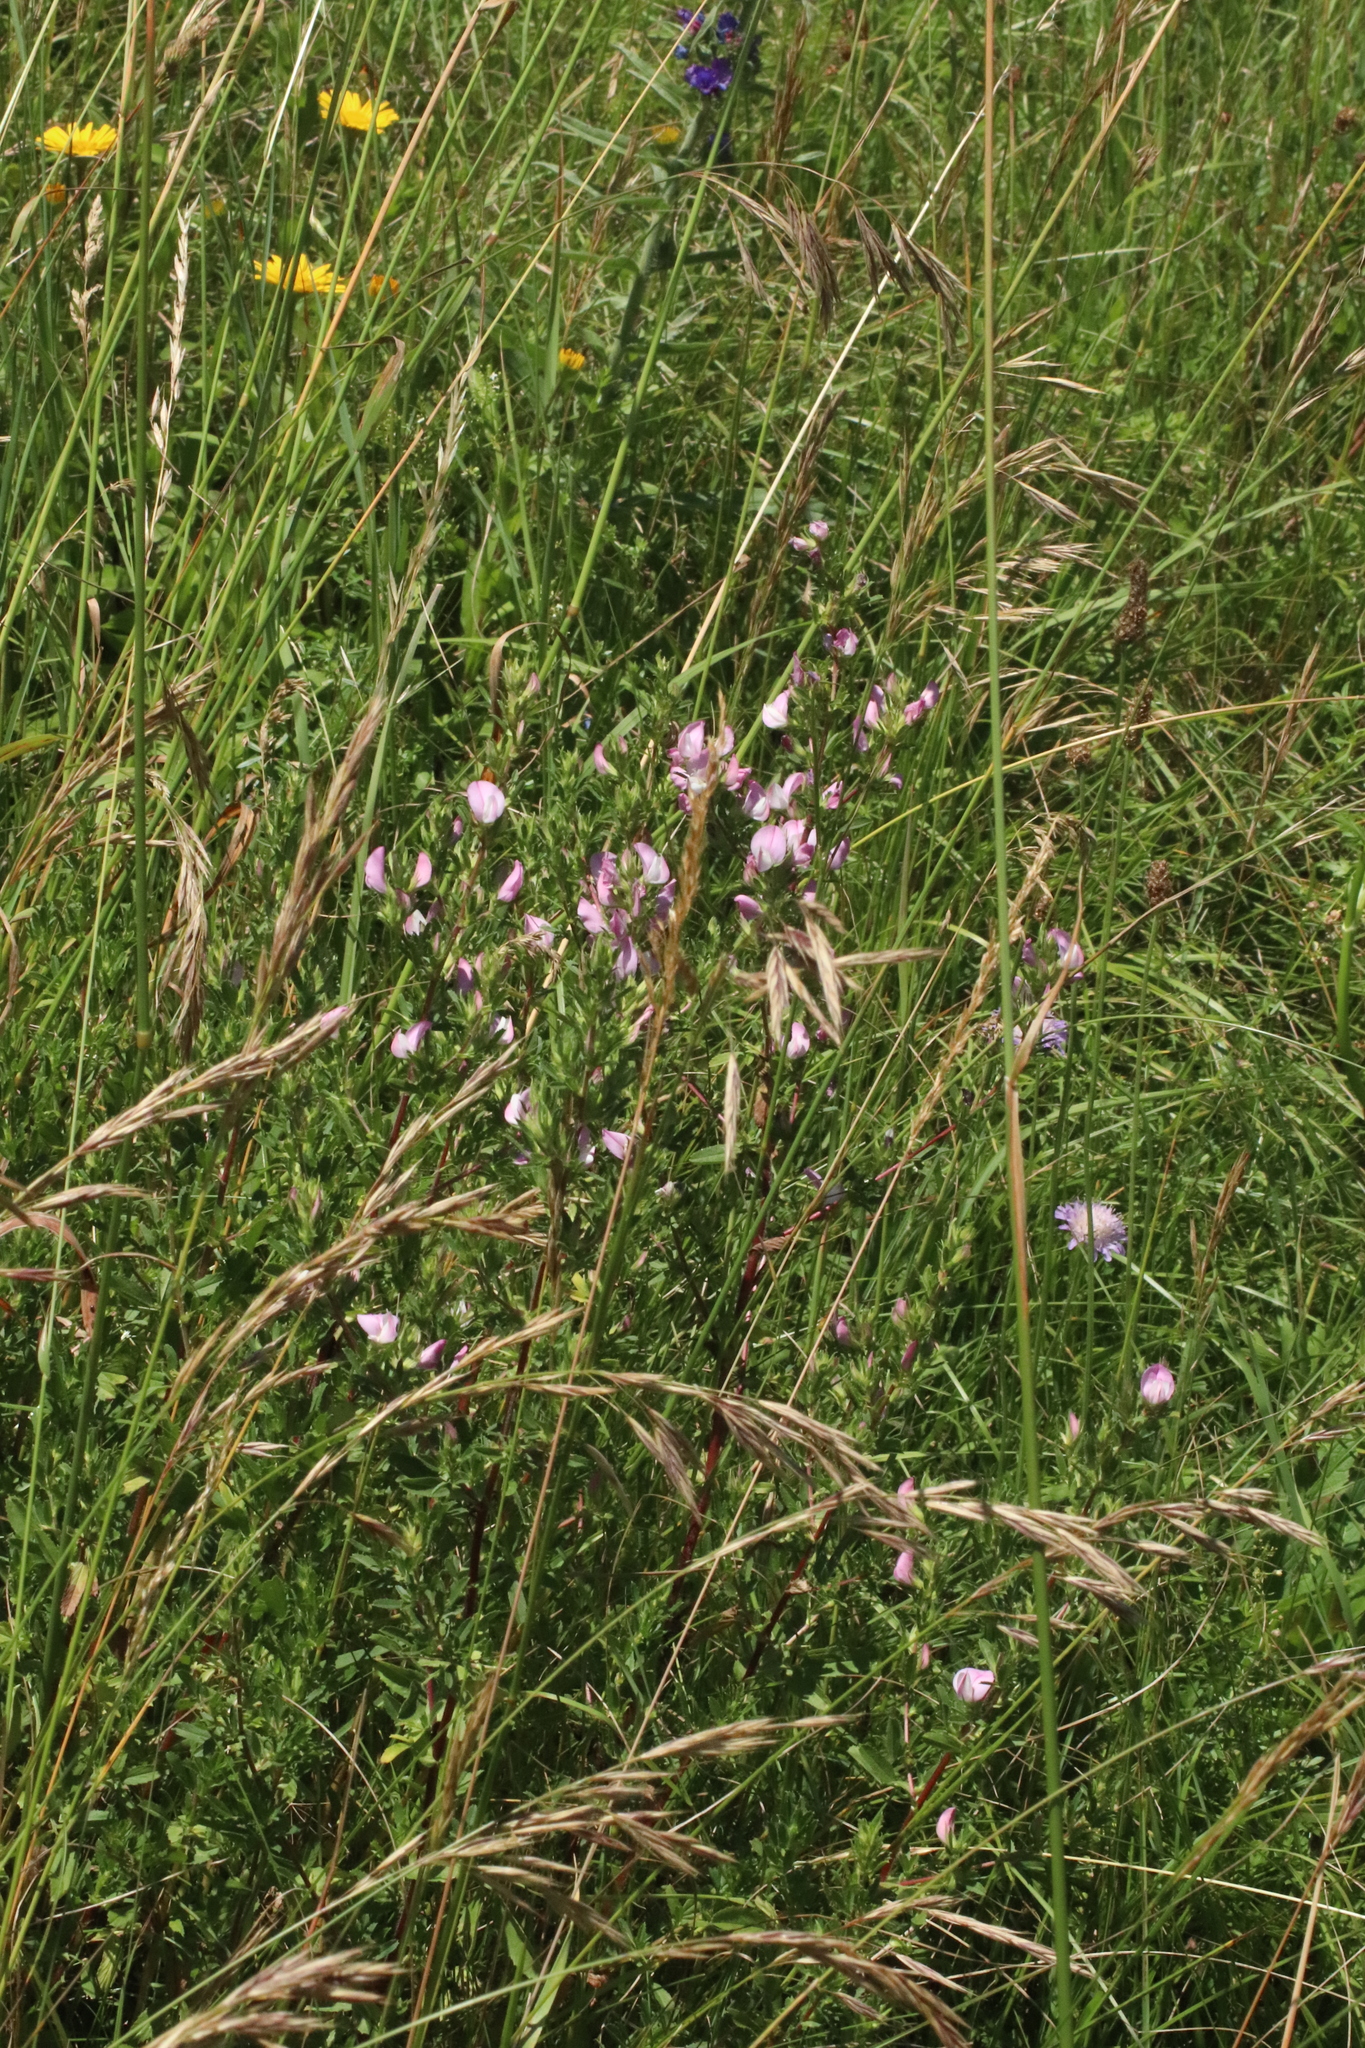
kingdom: Plantae
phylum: Tracheophyta
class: Magnoliopsida
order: Fabales
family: Fabaceae
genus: Ononis
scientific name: Ononis spinosa
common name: Spiny restharrow
